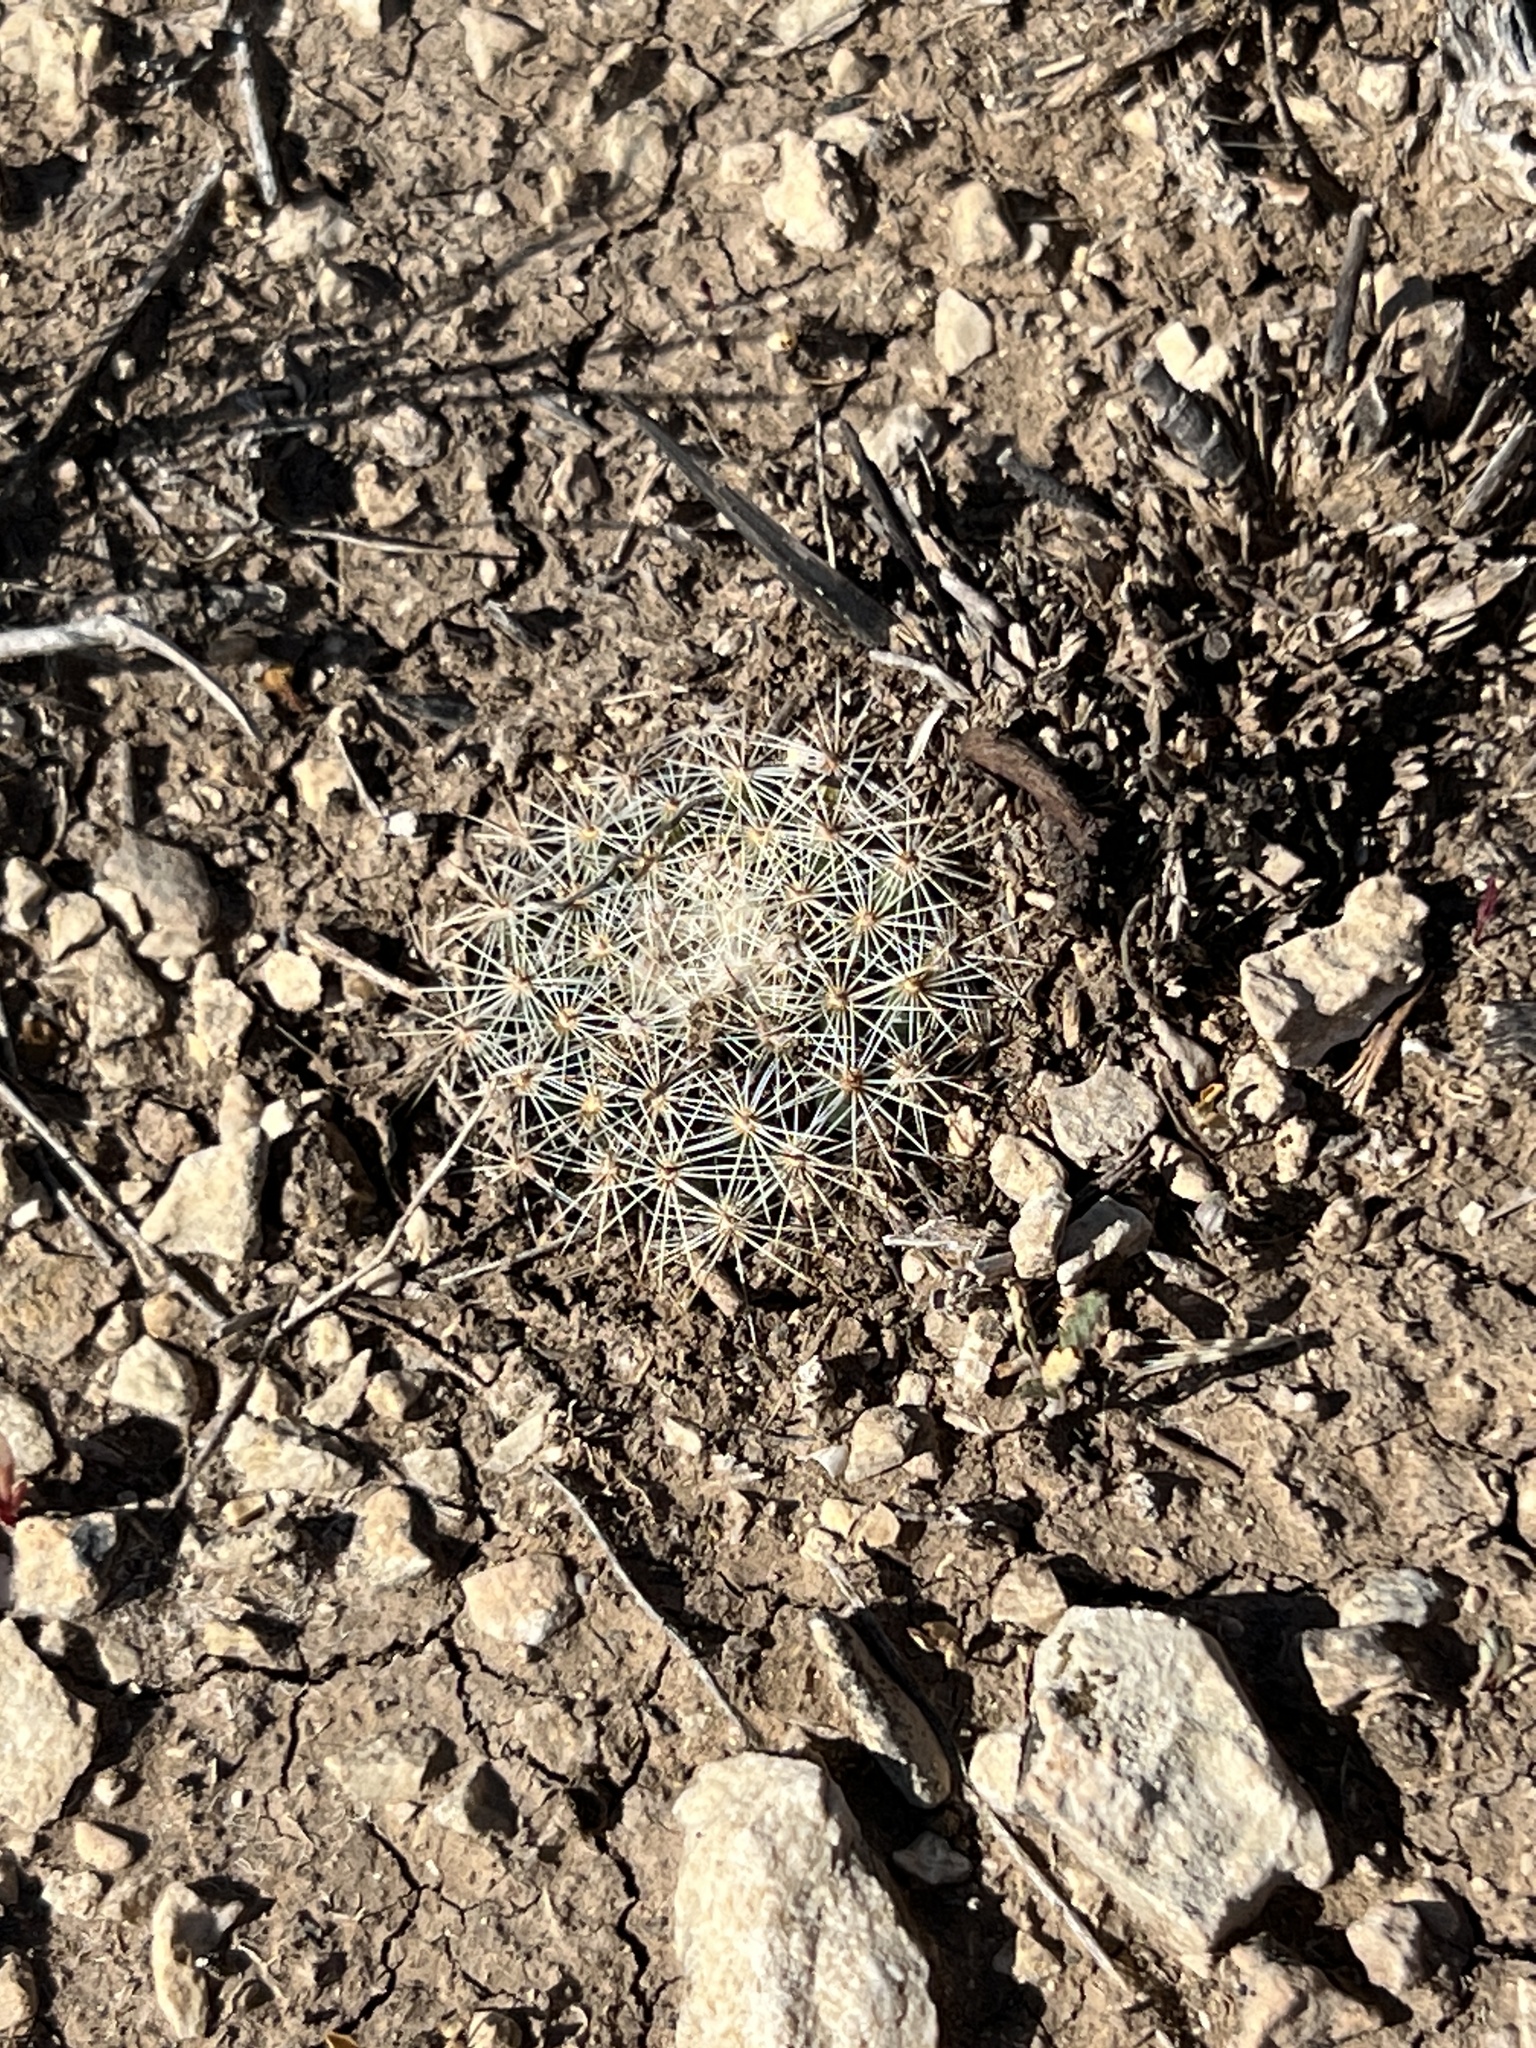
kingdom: Plantae
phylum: Tracheophyta
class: Magnoliopsida
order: Caryophyllales
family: Cactaceae
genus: Mammillaria
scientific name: Mammillaria heyderi
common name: Little nipple cactus
